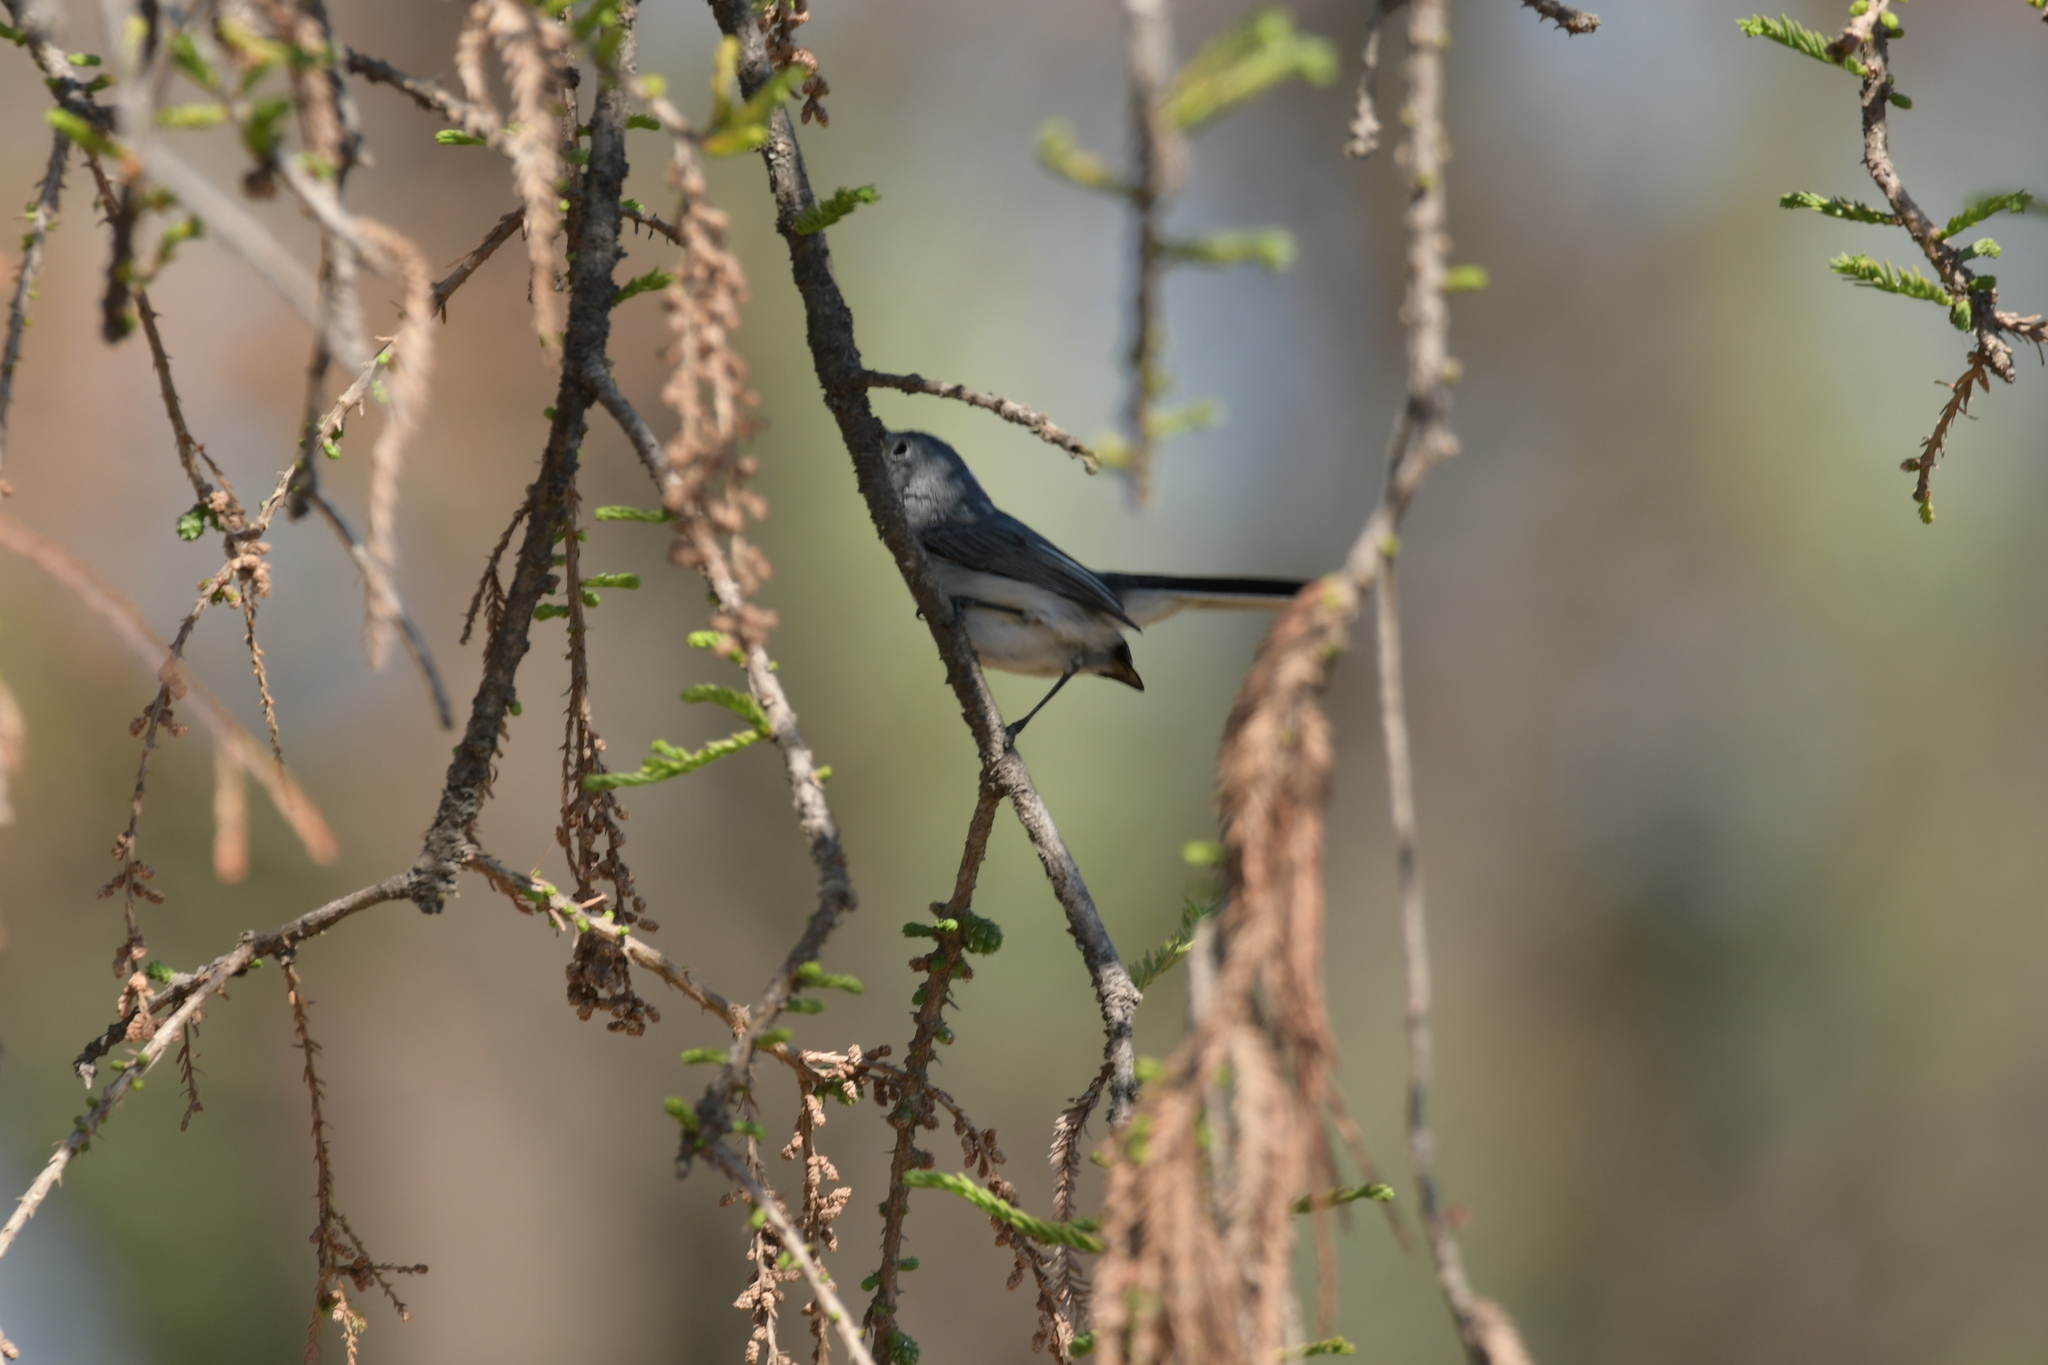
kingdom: Animalia
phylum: Chordata
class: Aves
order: Passeriformes
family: Polioptilidae
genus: Polioptila
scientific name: Polioptila caerulea
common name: Blue-gray gnatcatcher
